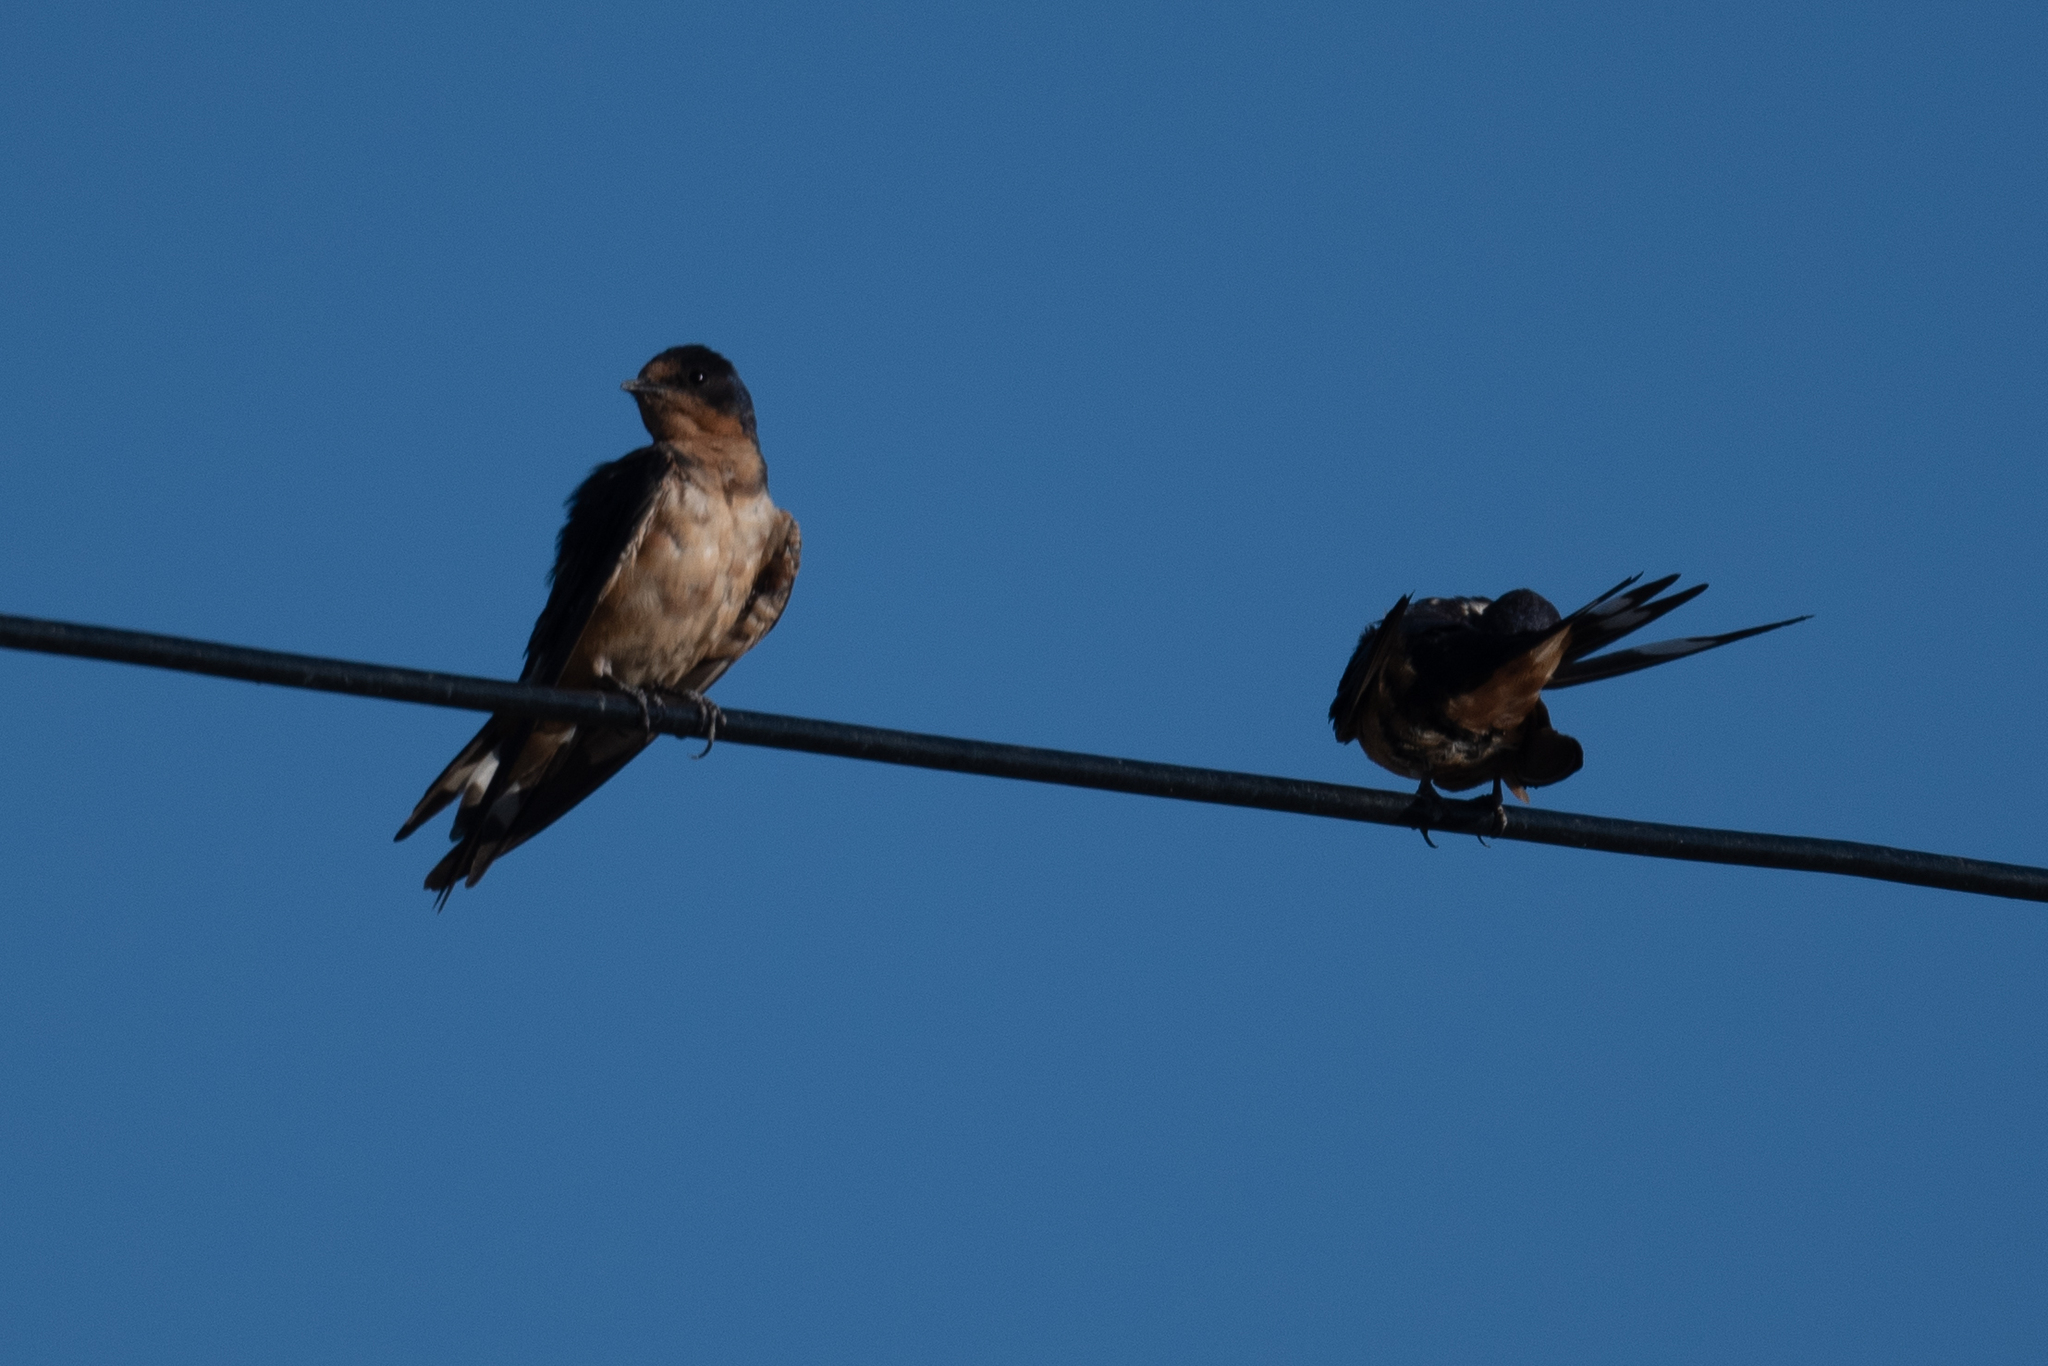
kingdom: Animalia
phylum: Chordata
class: Aves
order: Passeriformes
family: Hirundinidae
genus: Hirundo
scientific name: Hirundo rustica
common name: Barn swallow
